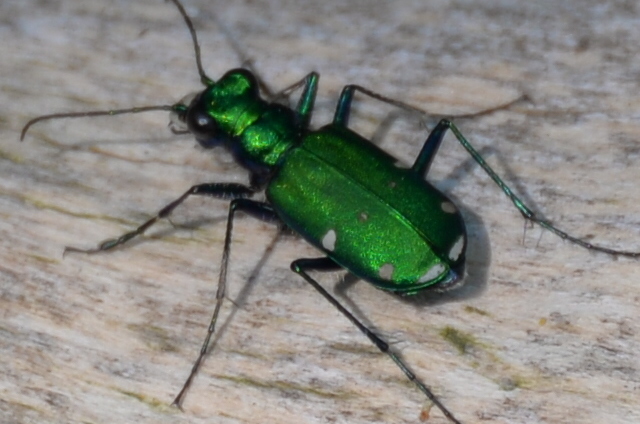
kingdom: Animalia
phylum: Arthropoda
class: Insecta
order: Coleoptera
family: Carabidae
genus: Cicindela
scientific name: Cicindela sexguttata
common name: Six-spotted tiger beetle
